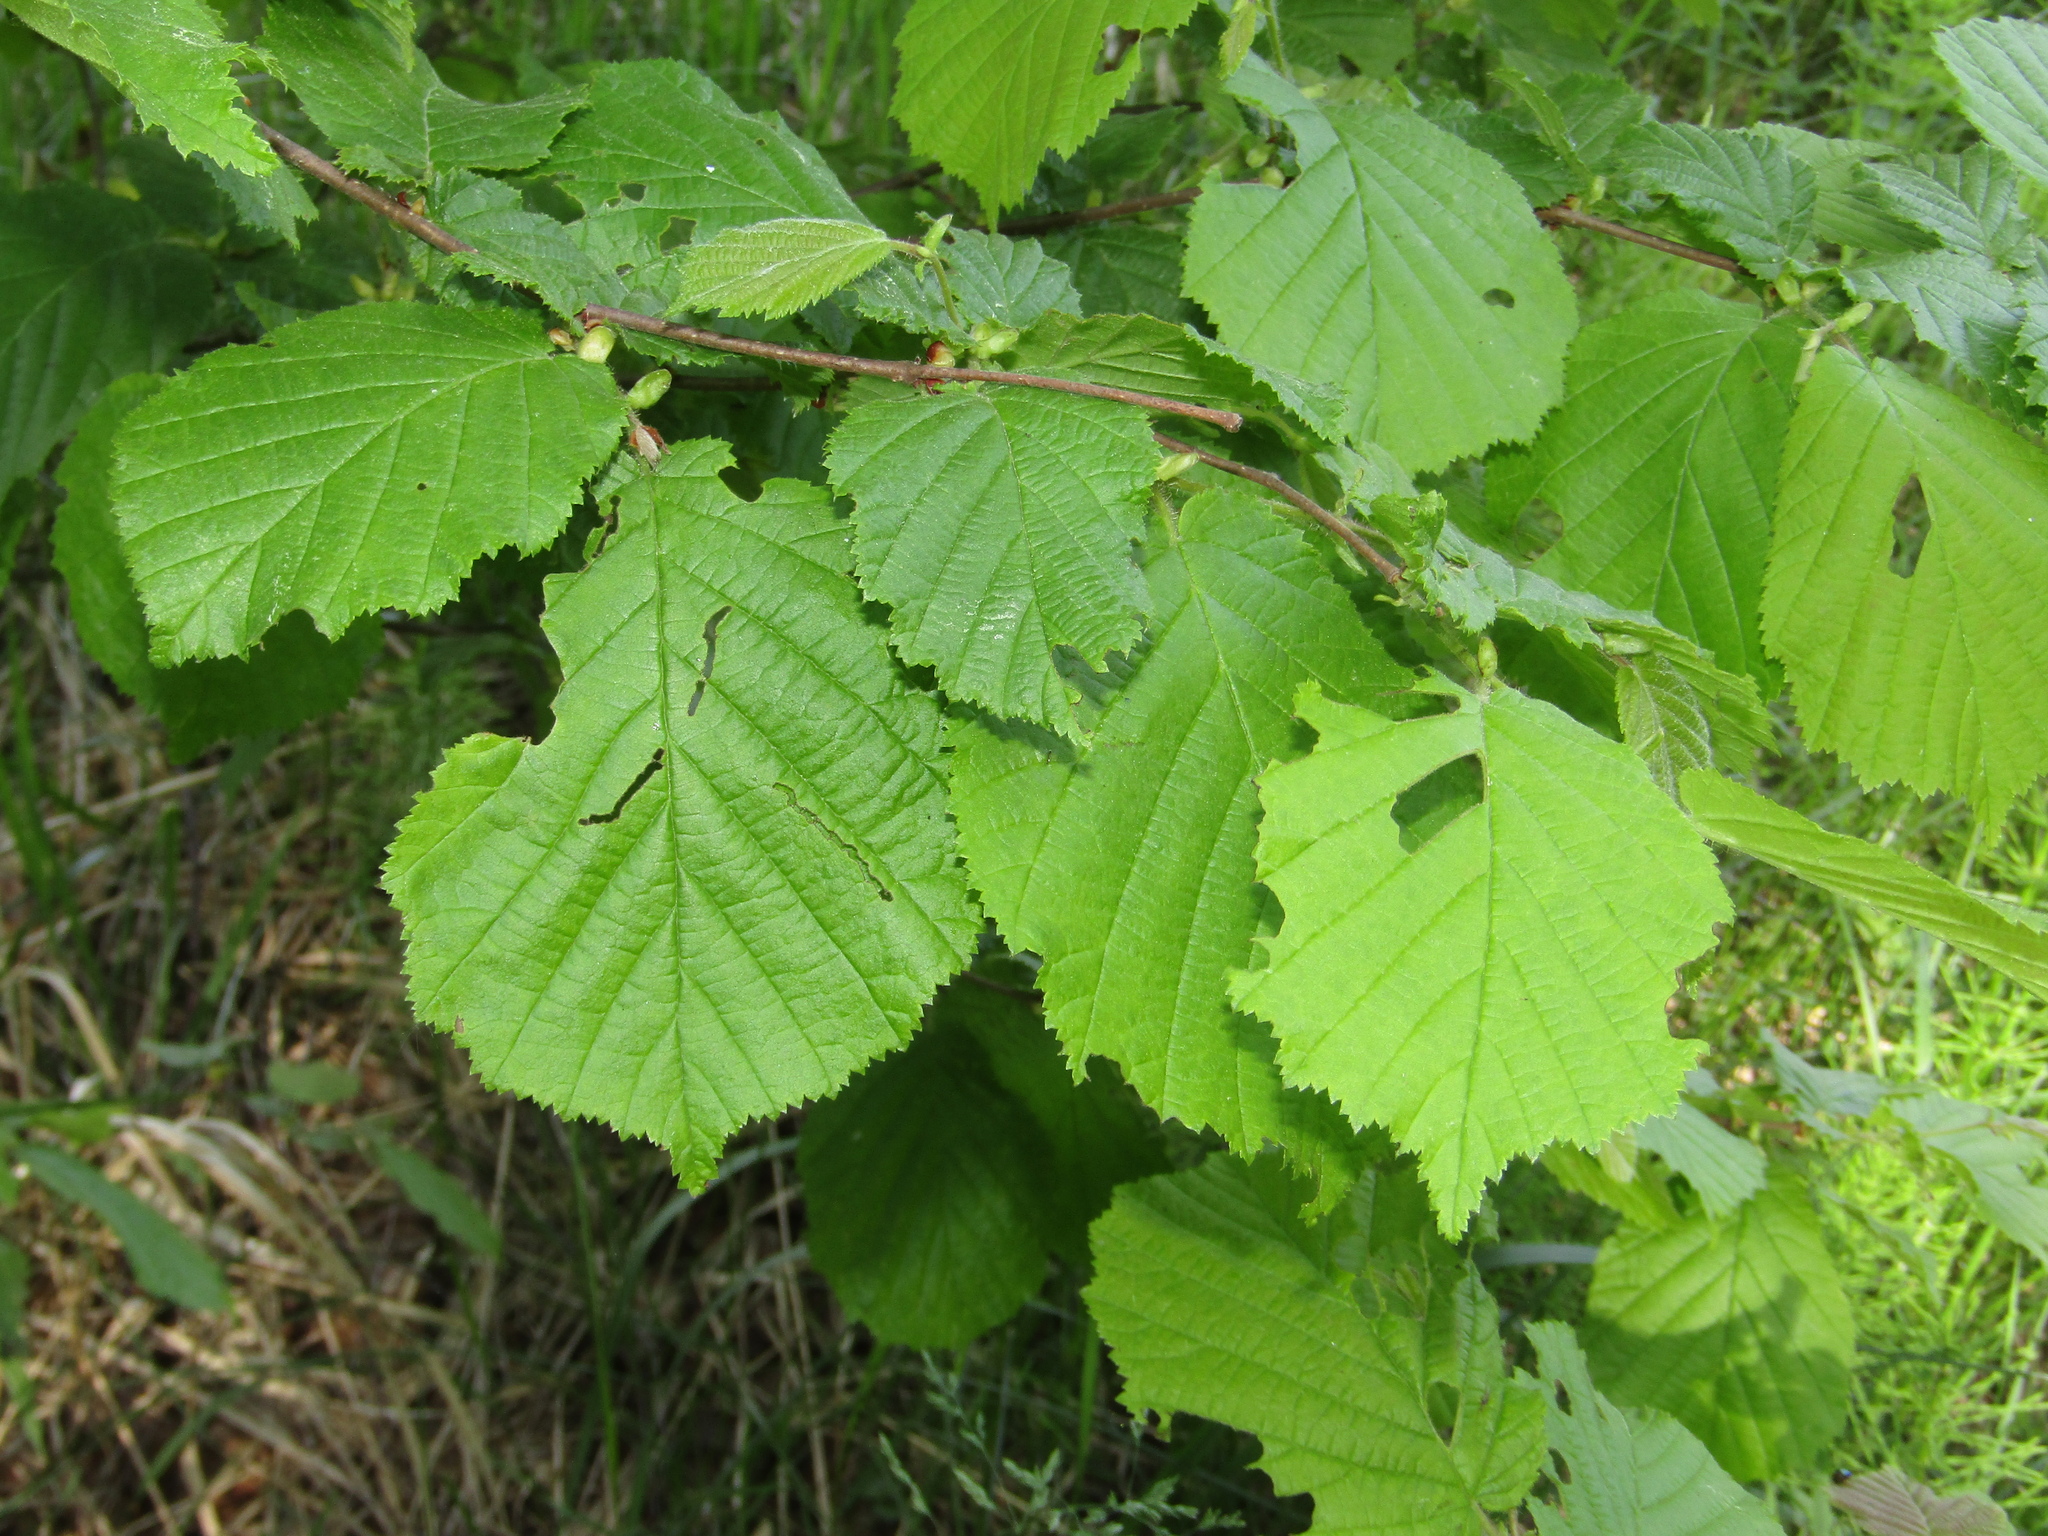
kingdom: Plantae
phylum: Tracheophyta
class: Magnoliopsida
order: Fagales
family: Betulaceae
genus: Corylus
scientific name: Corylus avellana
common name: European hazel
